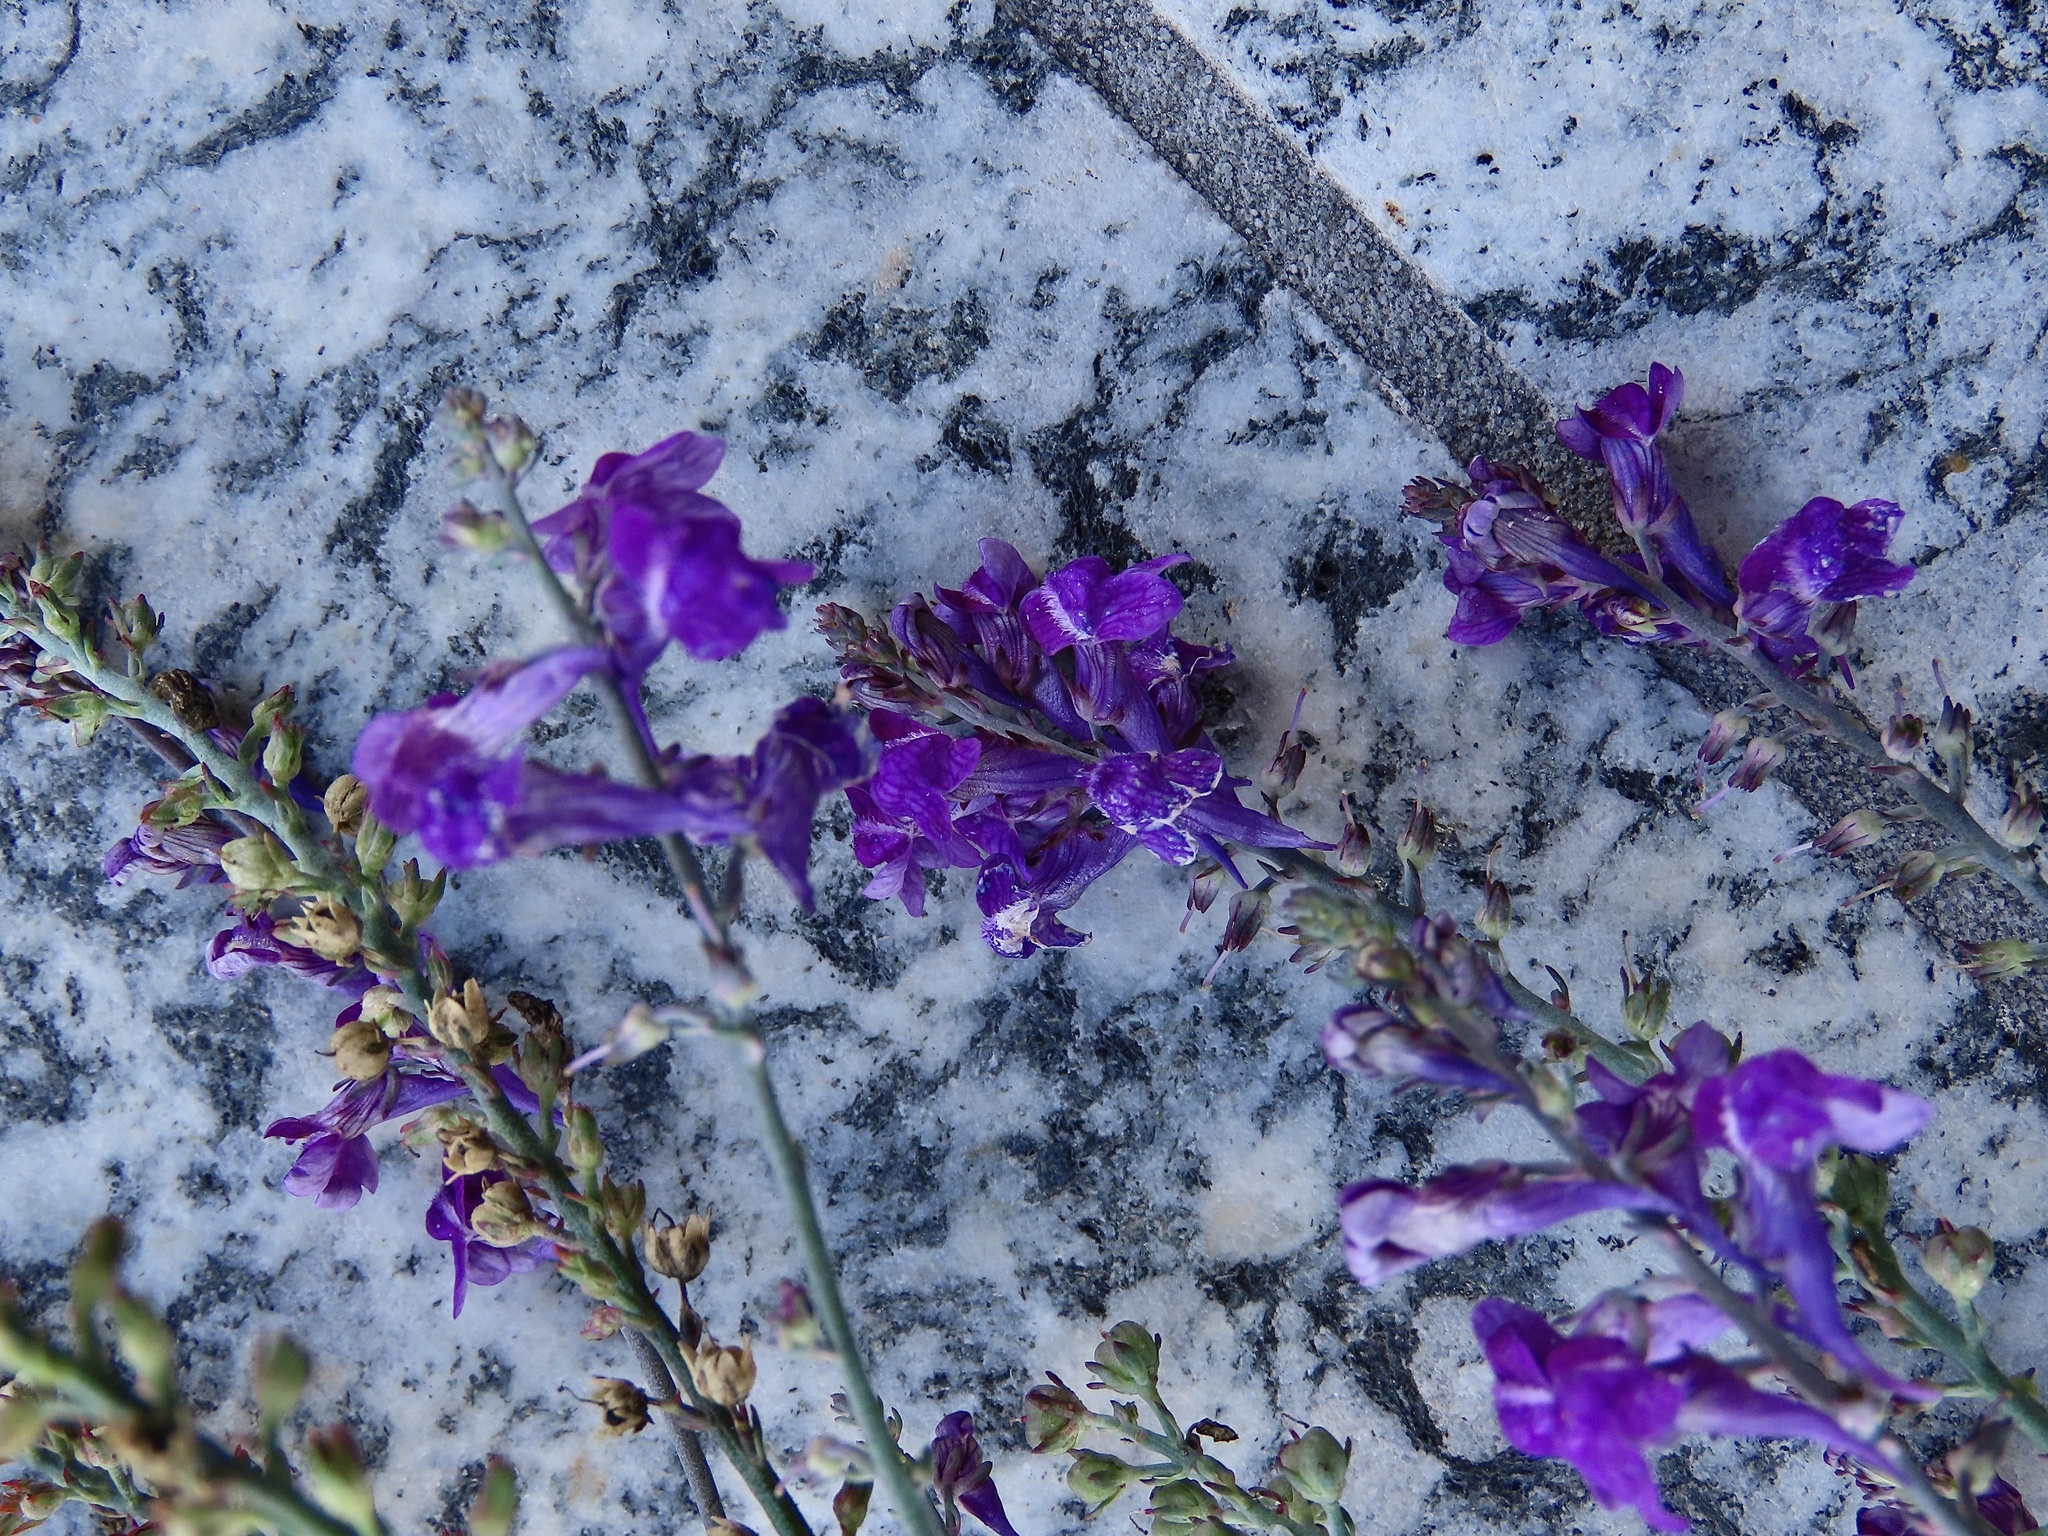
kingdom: Plantae
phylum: Tracheophyta
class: Magnoliopsida
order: Lamiales
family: Plantaginaceae
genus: Linaria
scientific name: Linaria purpurea
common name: Purple toadflax
